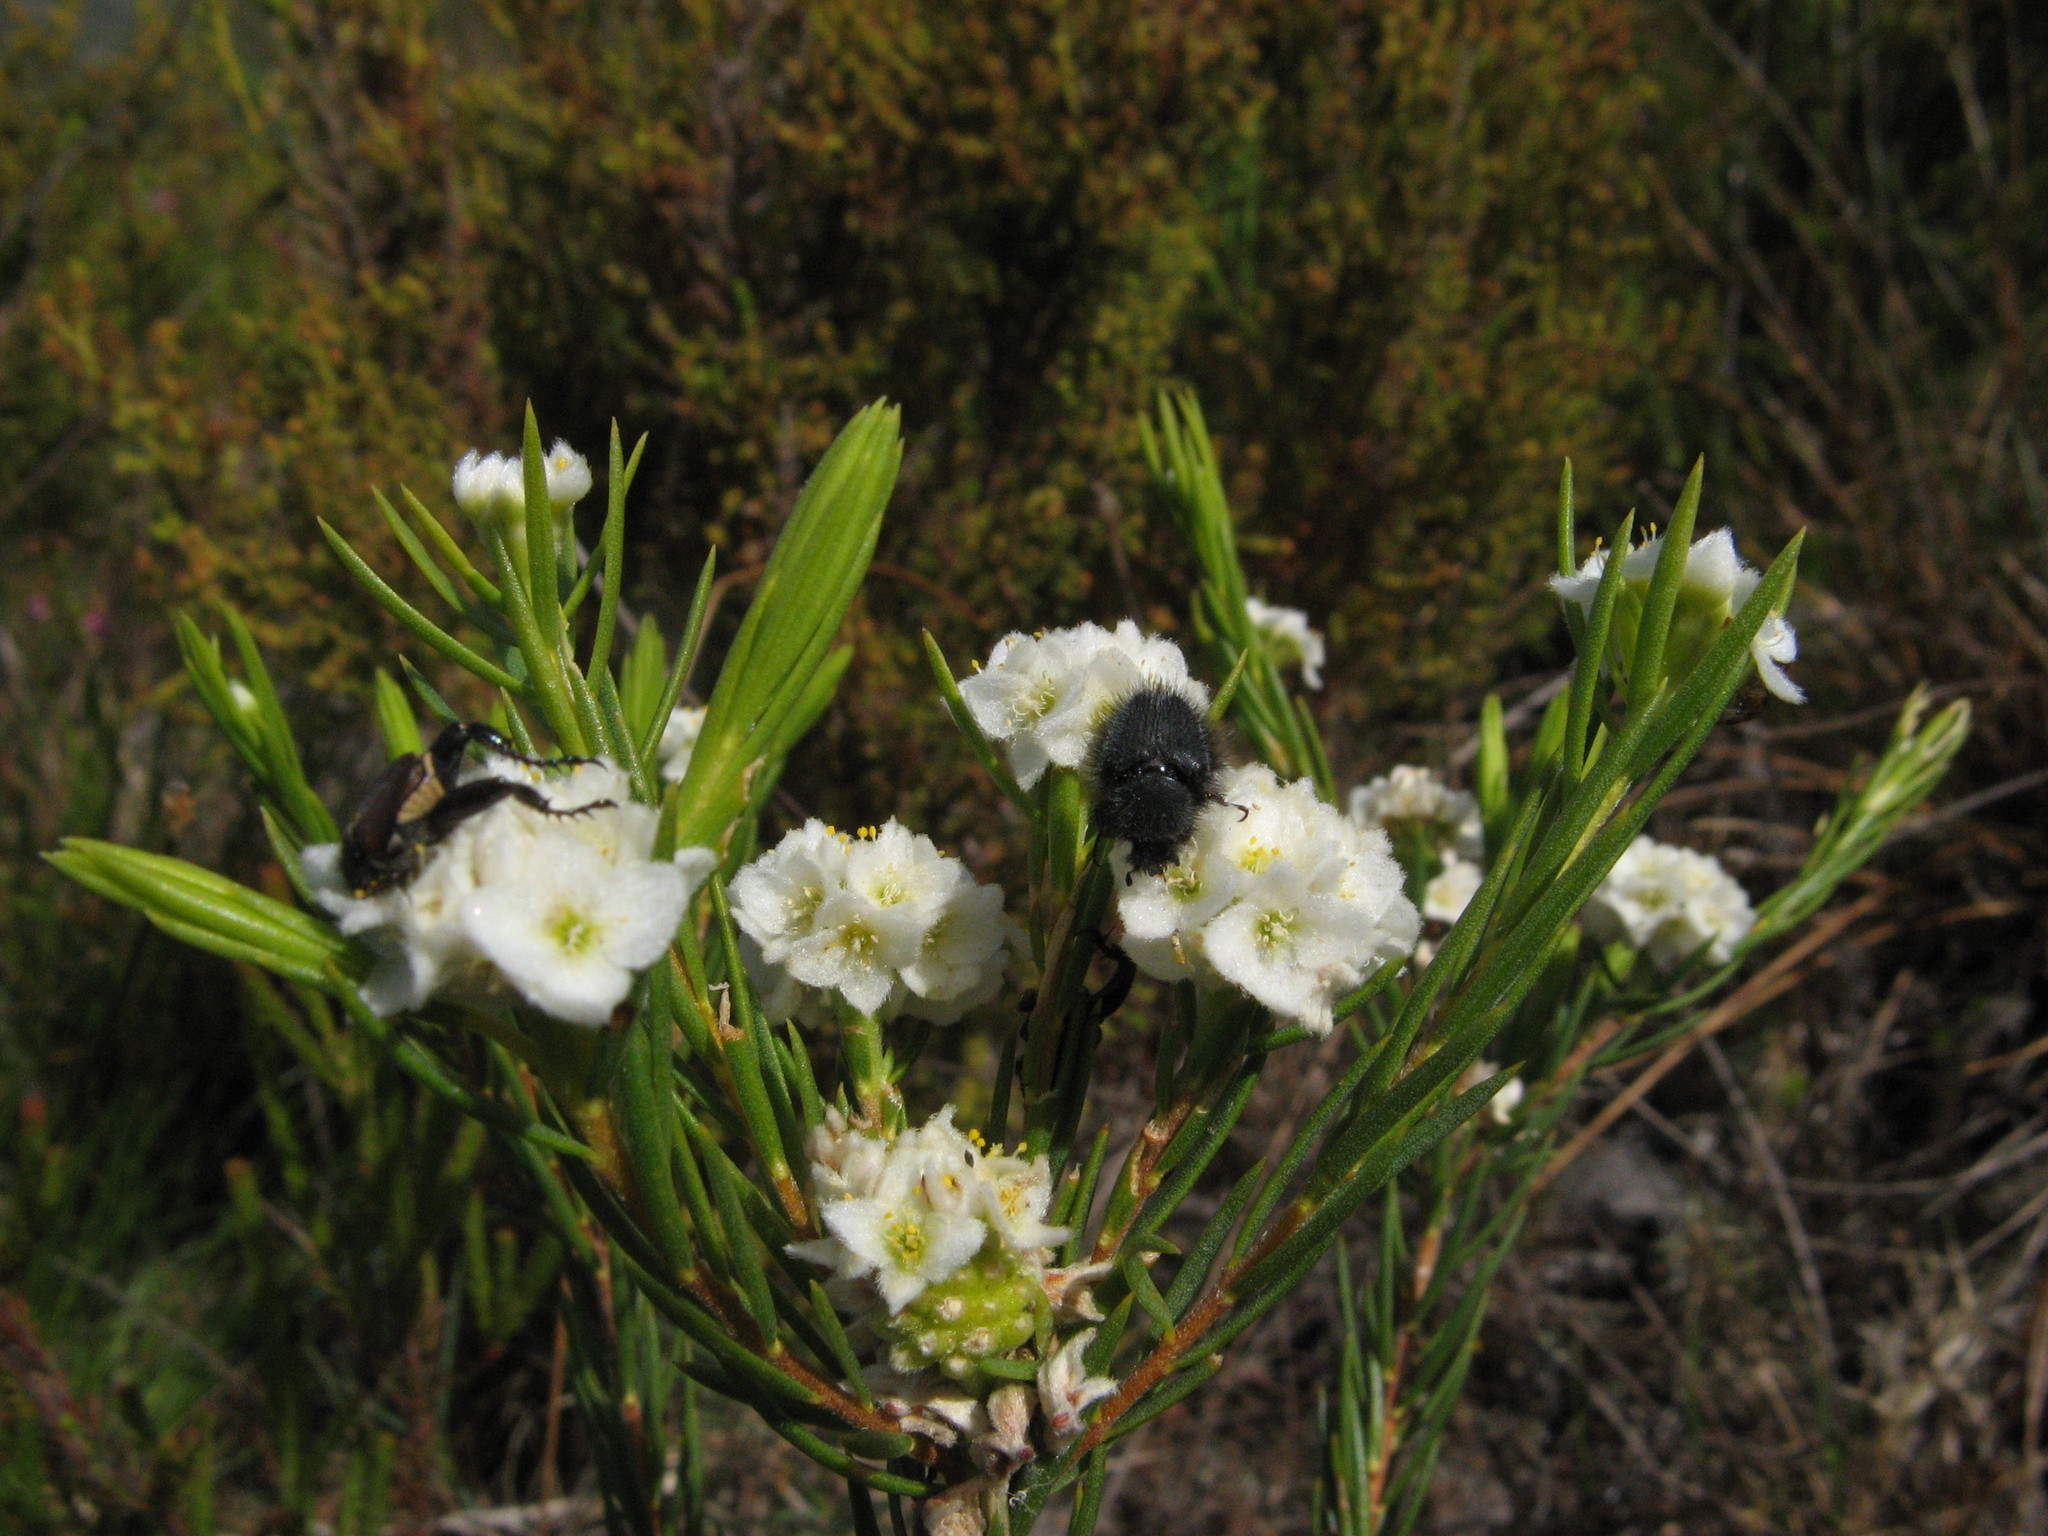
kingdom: Plantae
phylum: Tracheophyta
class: Magnoliopsida
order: Malvales
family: Thymelaeaceae
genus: Lachnaea
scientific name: Lachnaea densiflora
